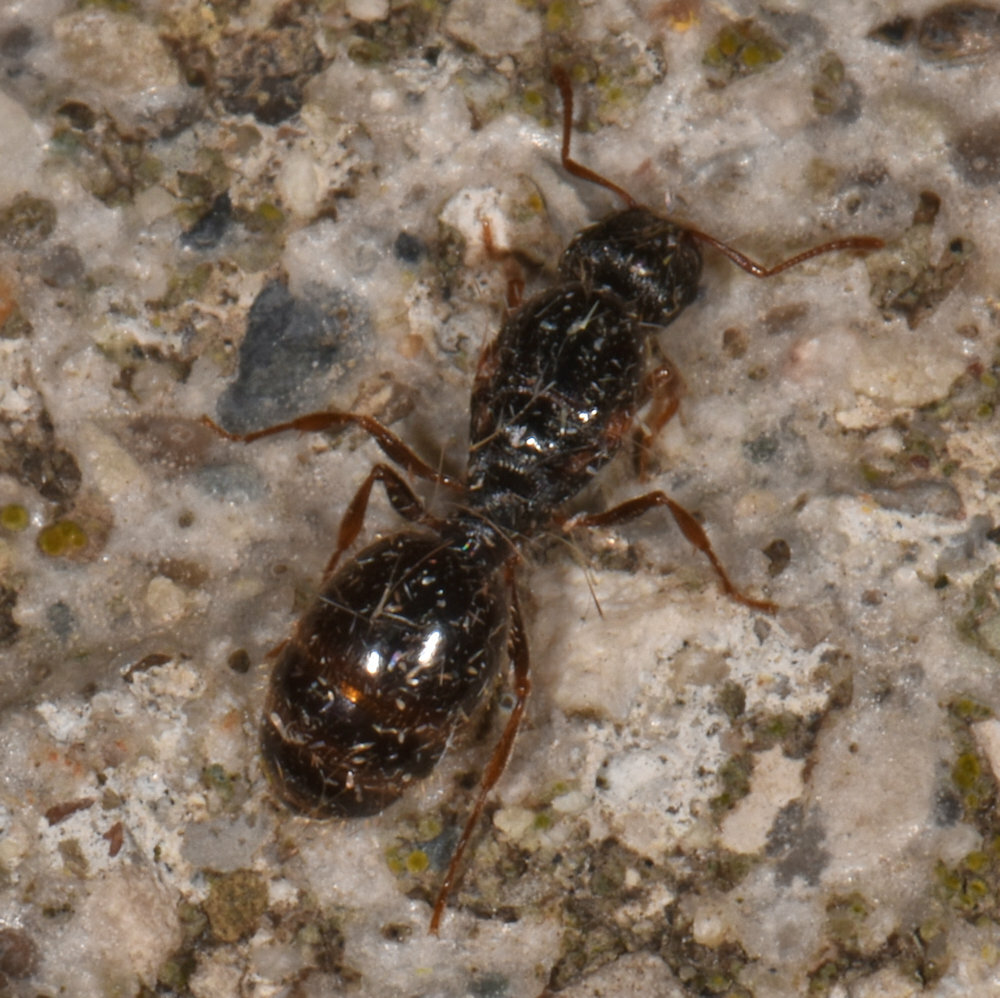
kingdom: Animalia
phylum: Arthropoda
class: Insecta
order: Hymenoptera
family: Formicidae
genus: Tetramorium
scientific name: Tetramorium immigrans
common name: Pavement ant
